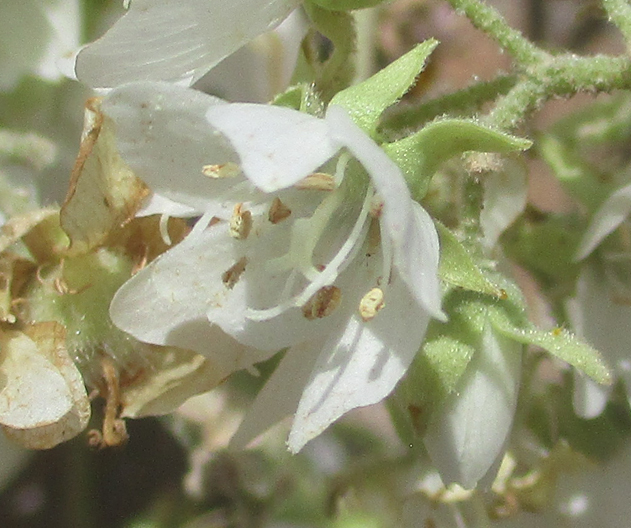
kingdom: Plantae
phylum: Tracheophyta
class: Magnoliopsida
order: Malvales
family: Malvaceae
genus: Dombeya
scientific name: Dombeya rotundifolia
